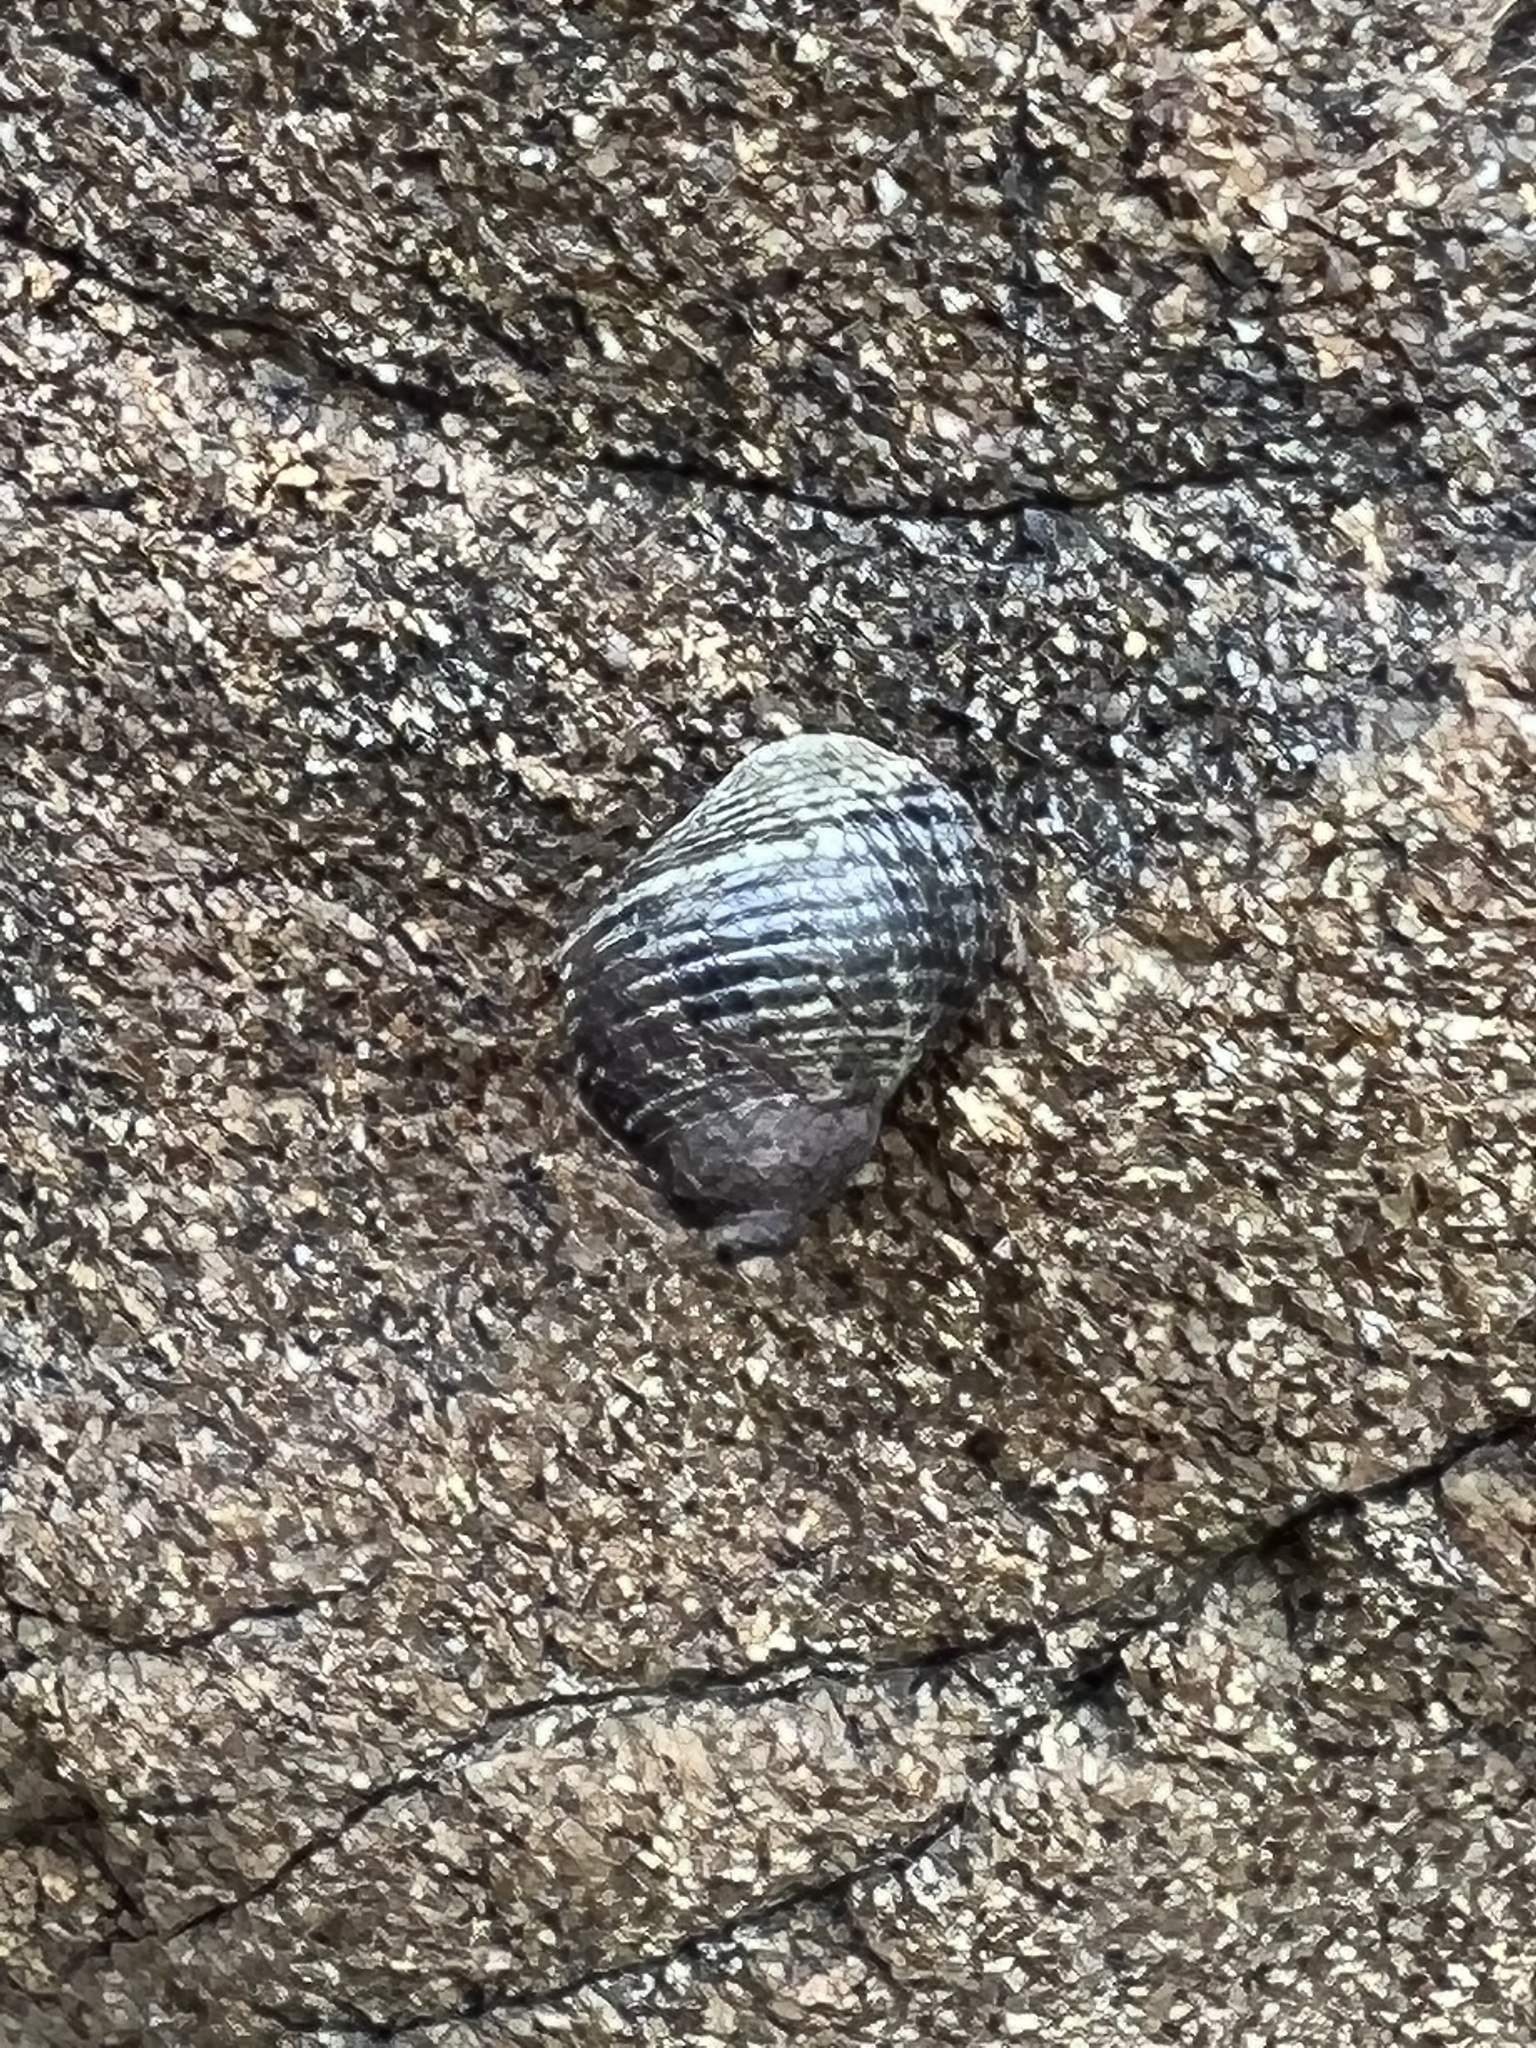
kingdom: Animalia
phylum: Mollusca
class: Gastropoda
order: Littorinimorpha
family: Littorinidae
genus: Austrolittorina
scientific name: Austrolittorina cincta
